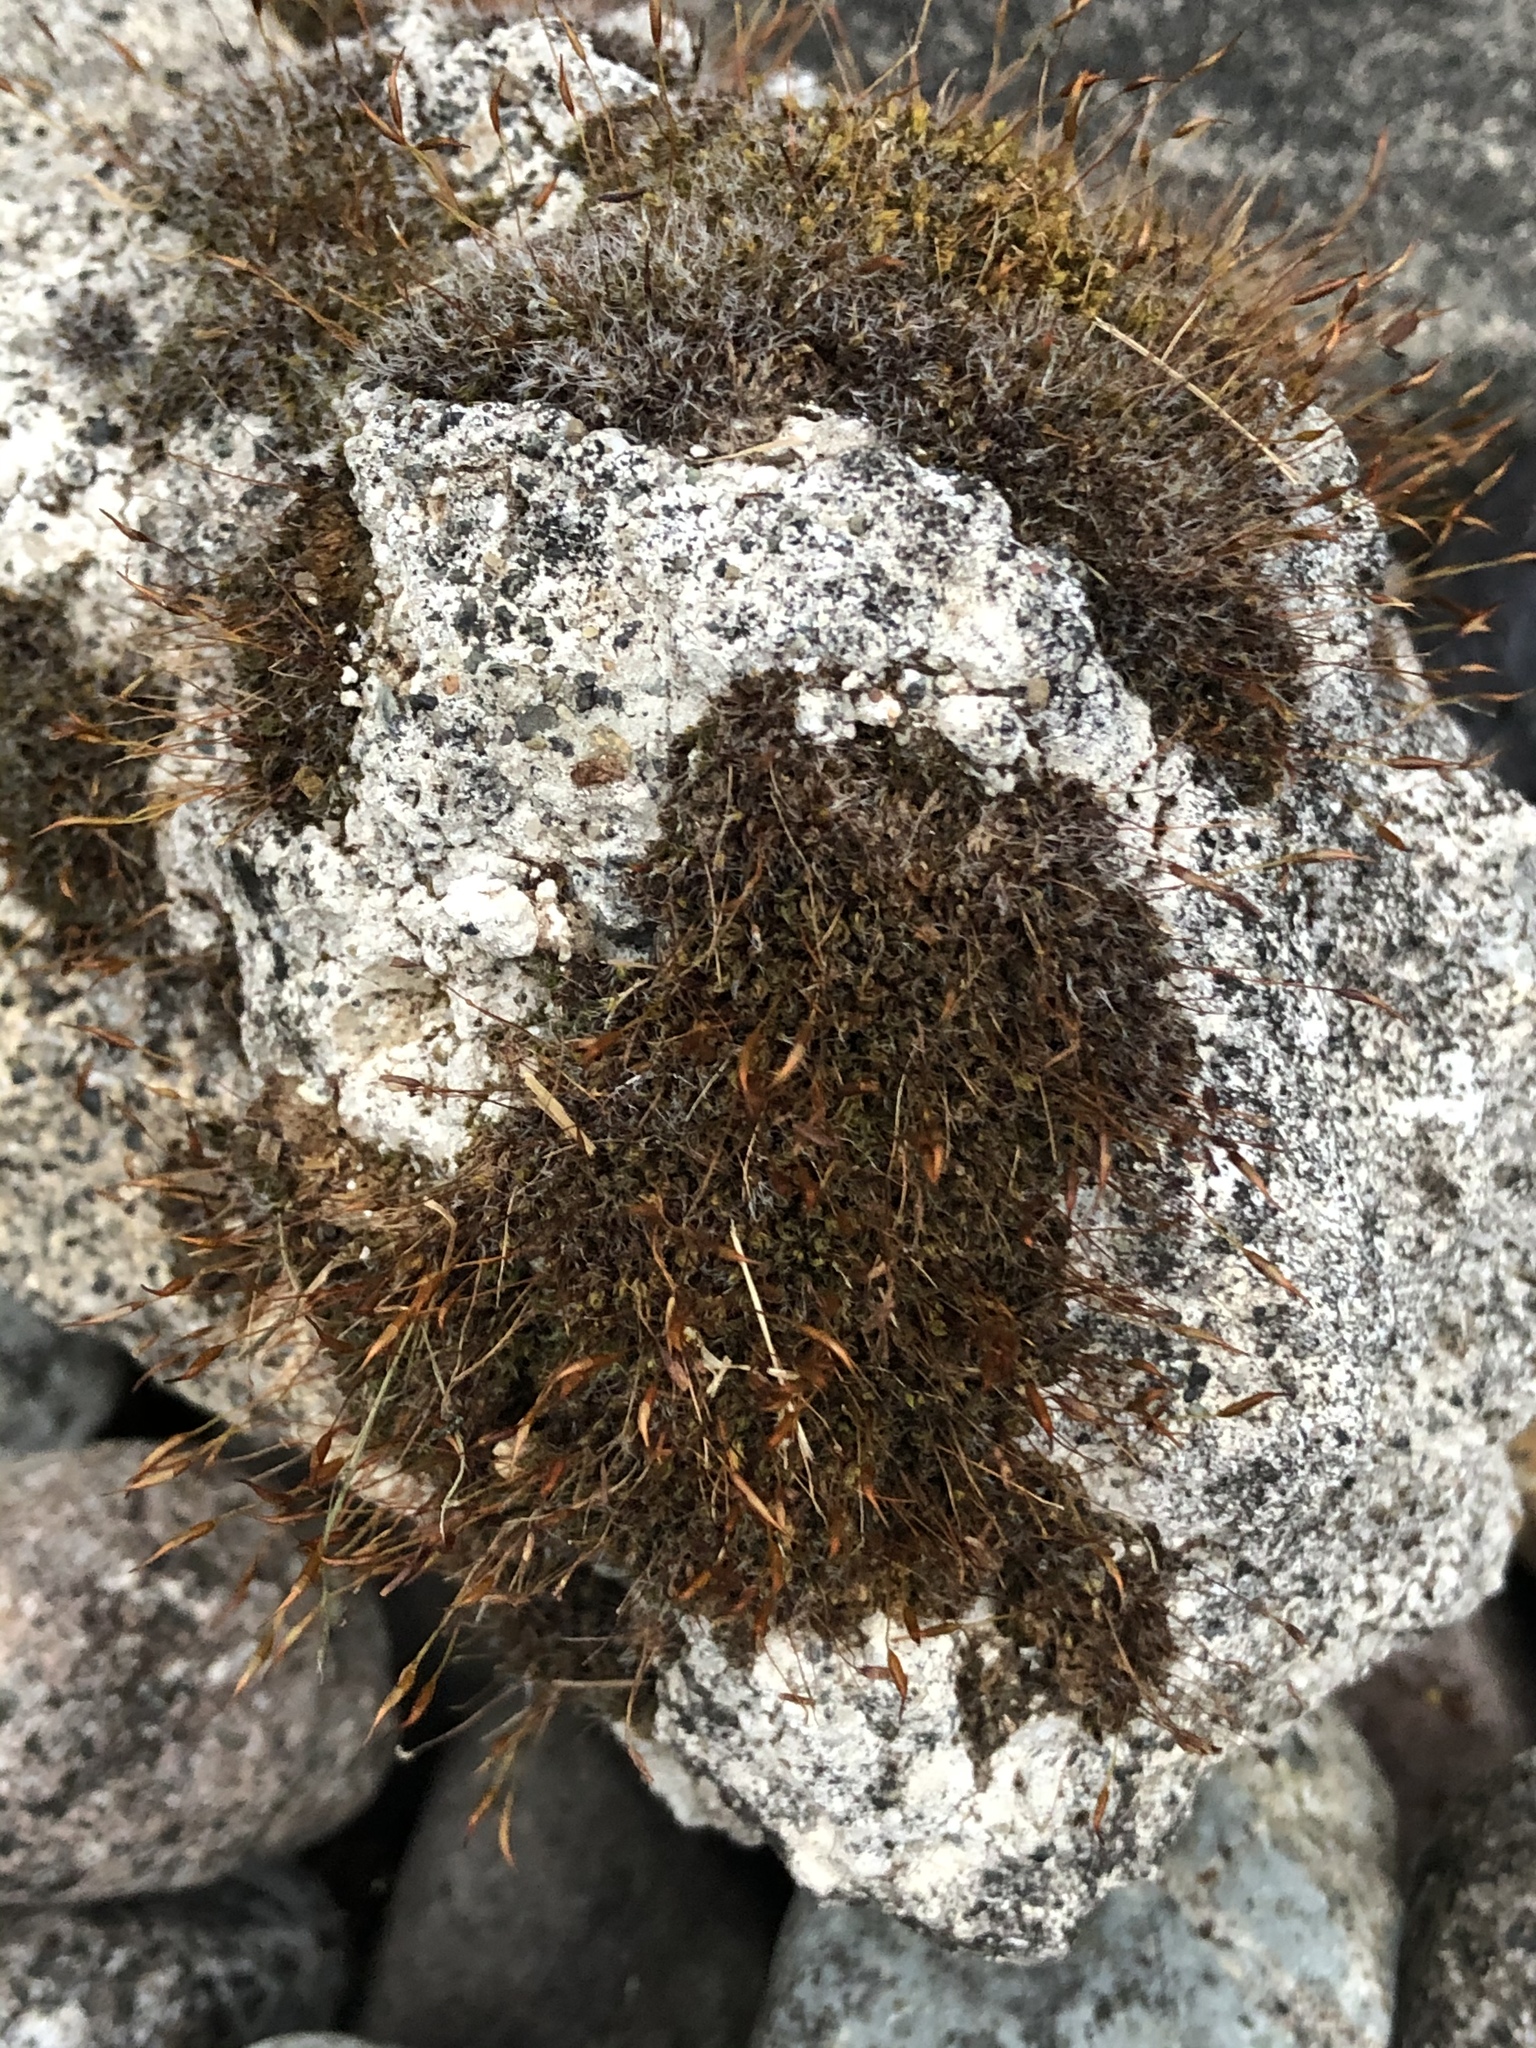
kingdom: Plantae
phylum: Bryophyta
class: Bryopsida
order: Pottiales
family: Pottiaceae
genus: Tortula
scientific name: Tortula muralis
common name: Wall screw-moss
